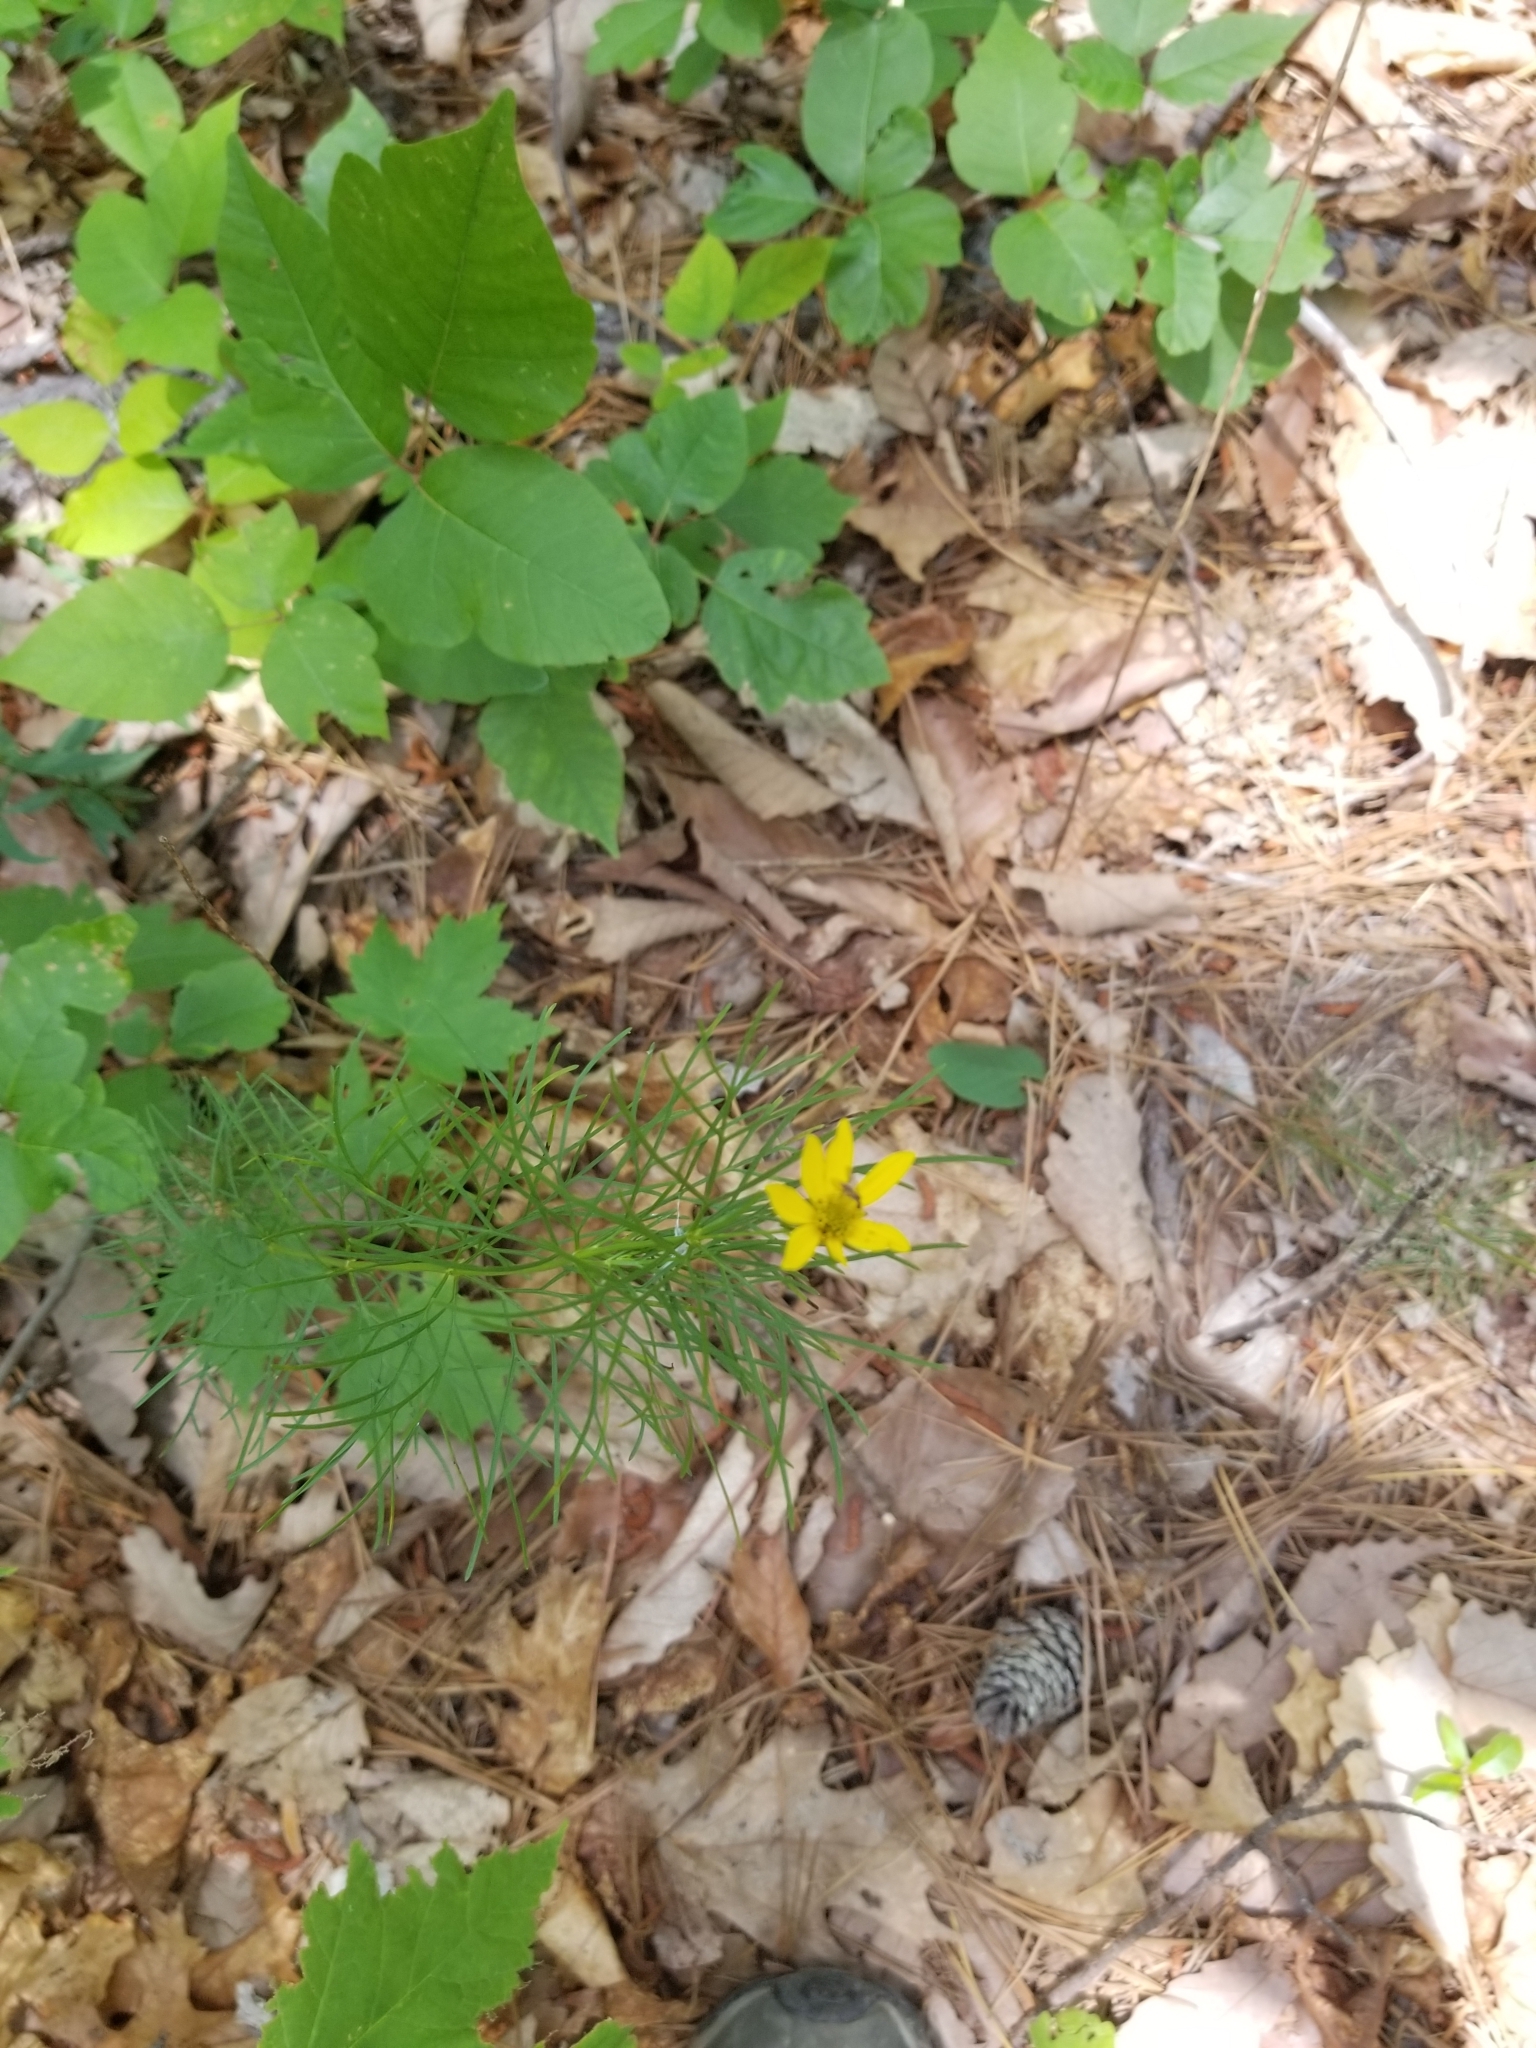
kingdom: Plantae
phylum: Tracheophyta
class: Magnoliopsida
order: Asterales
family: Asteraceae
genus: Coreopsis
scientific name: Coreopsis verticillata
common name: Whorled tickseed
